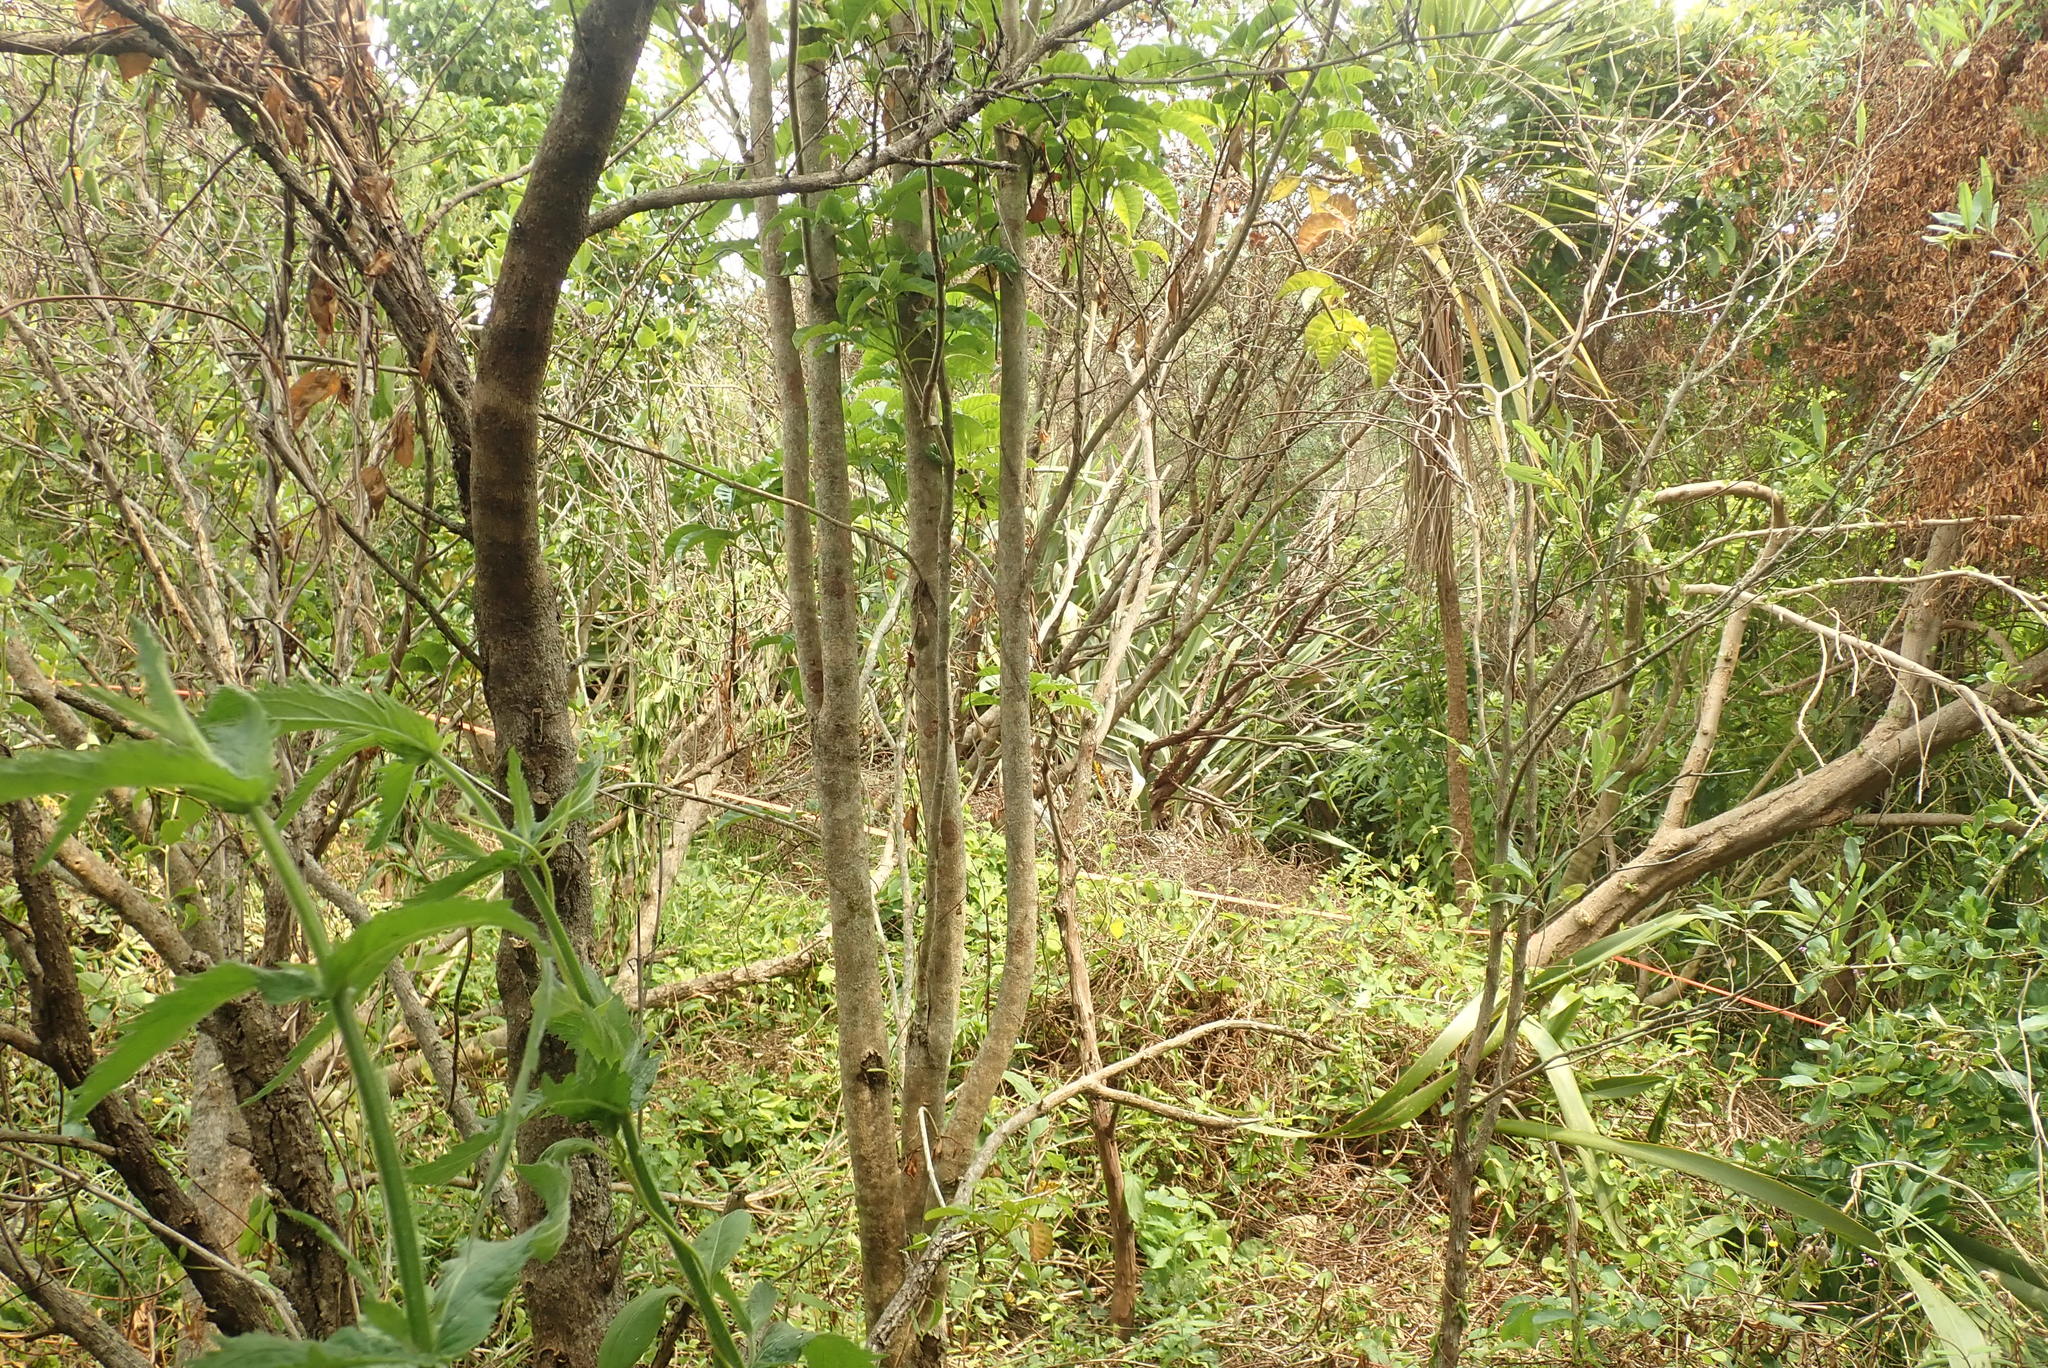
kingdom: Plantae
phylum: Tracheophyta
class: Magnoliopsida
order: Lamiales
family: Lamiaceae
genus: Vitex
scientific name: Vitex lucens
